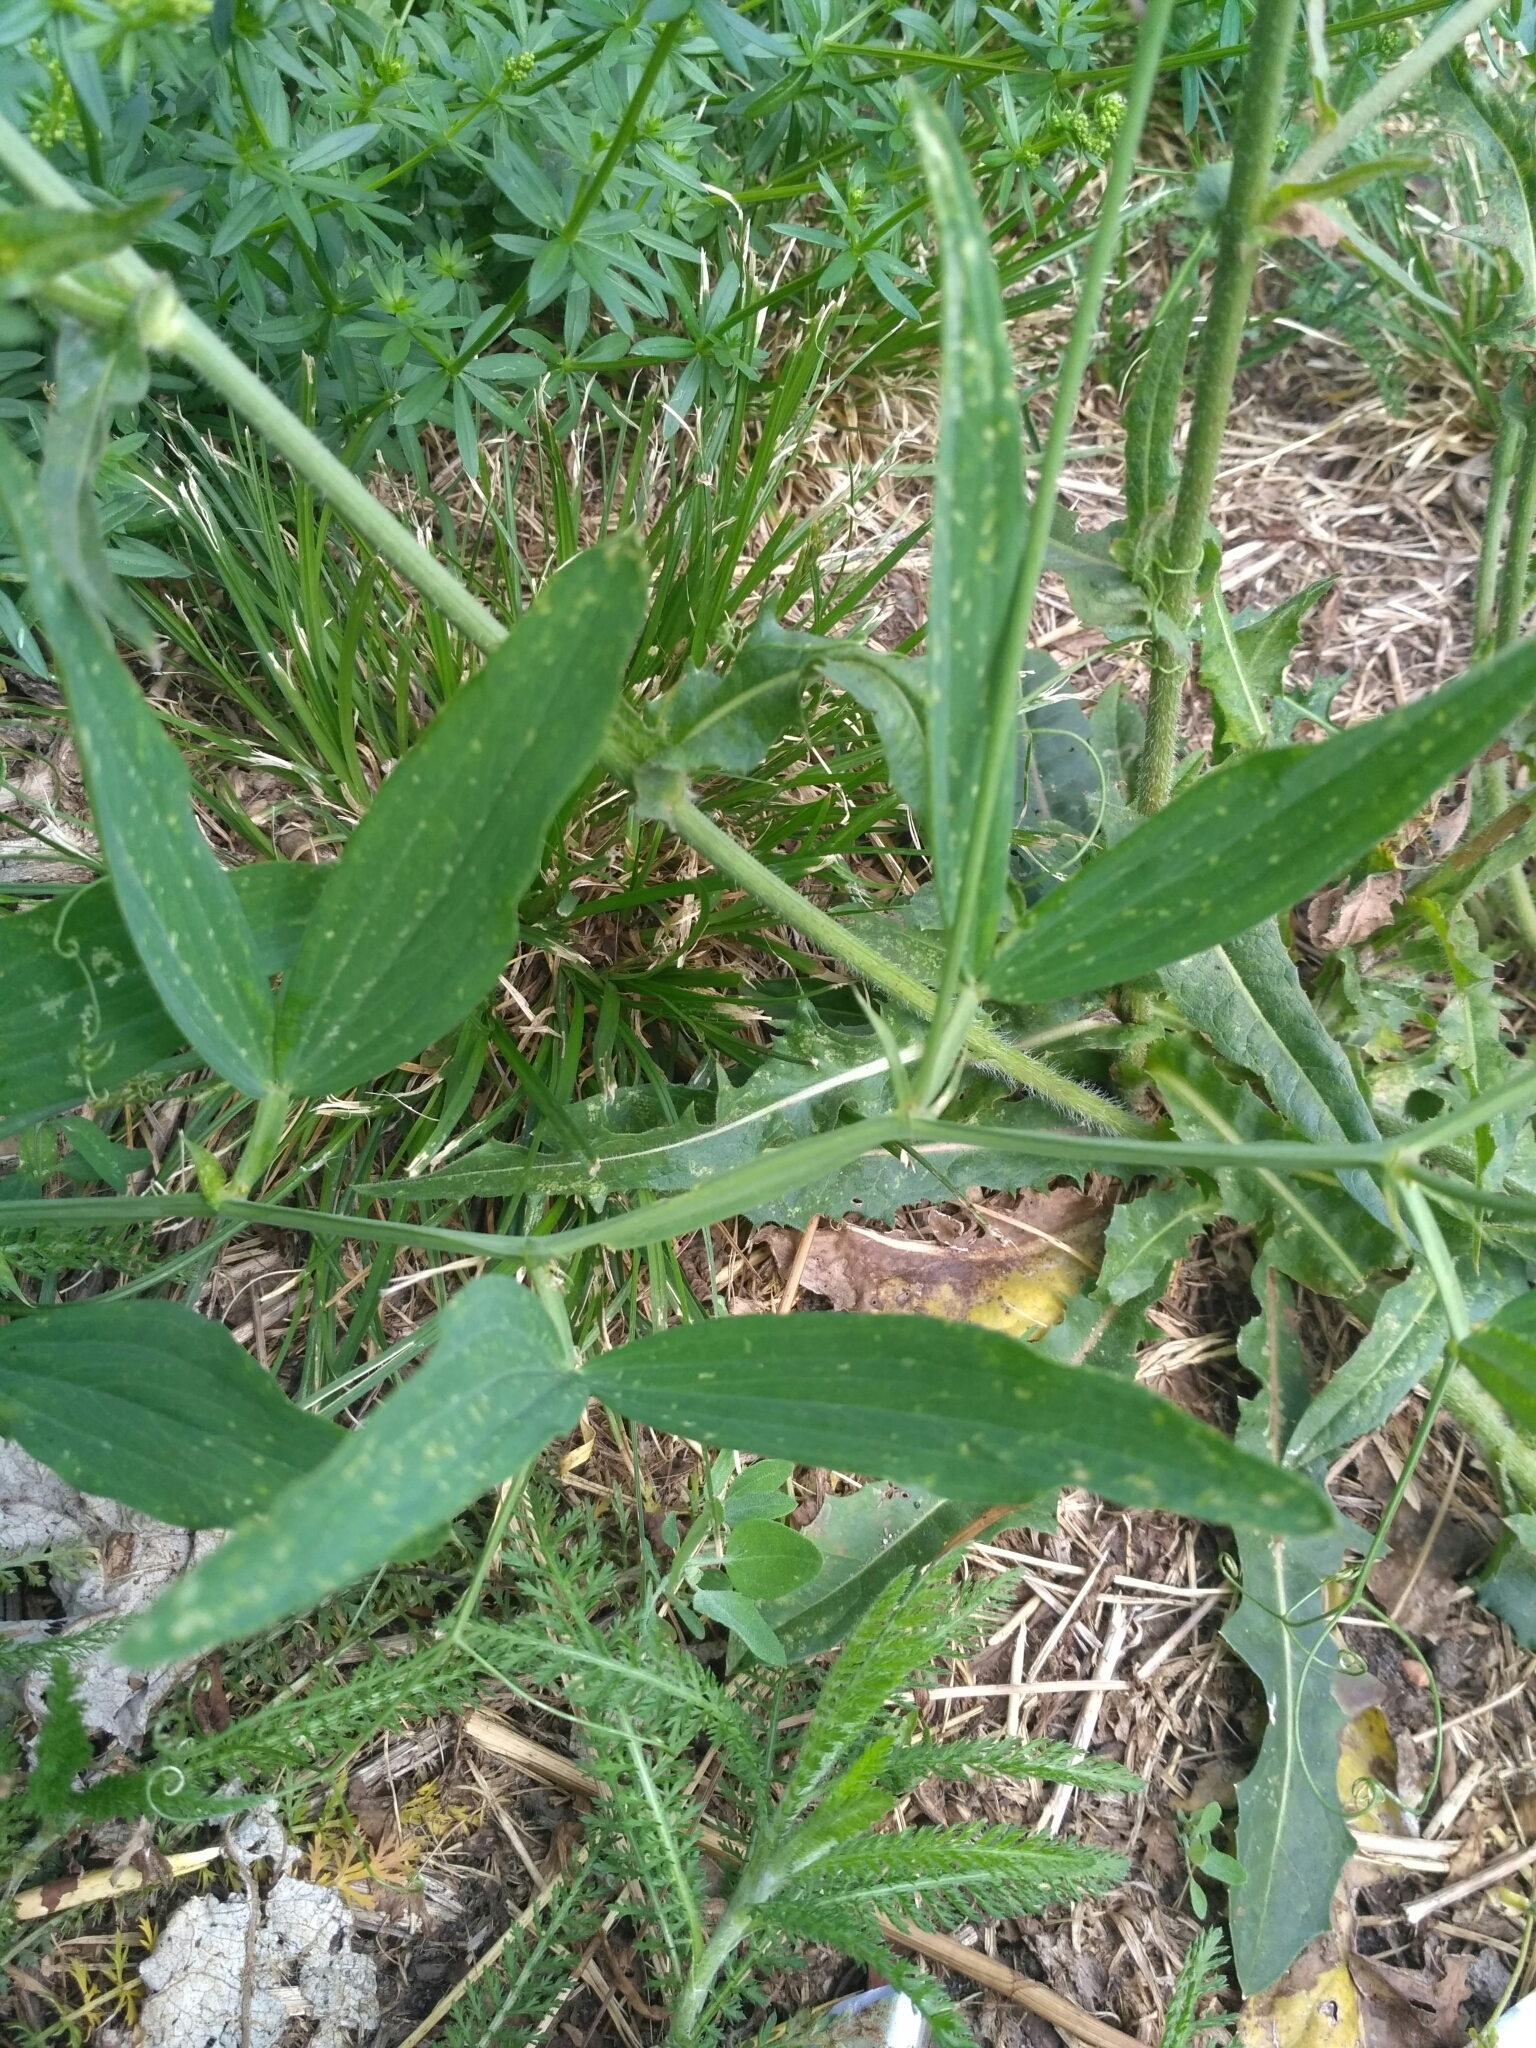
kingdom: Plantae
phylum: Tracheophyta
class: Magnoliopsida
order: Fabales
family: Fabaceae
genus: Lathyrus
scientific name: Lathyrus sylvestris
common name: Flat pea
